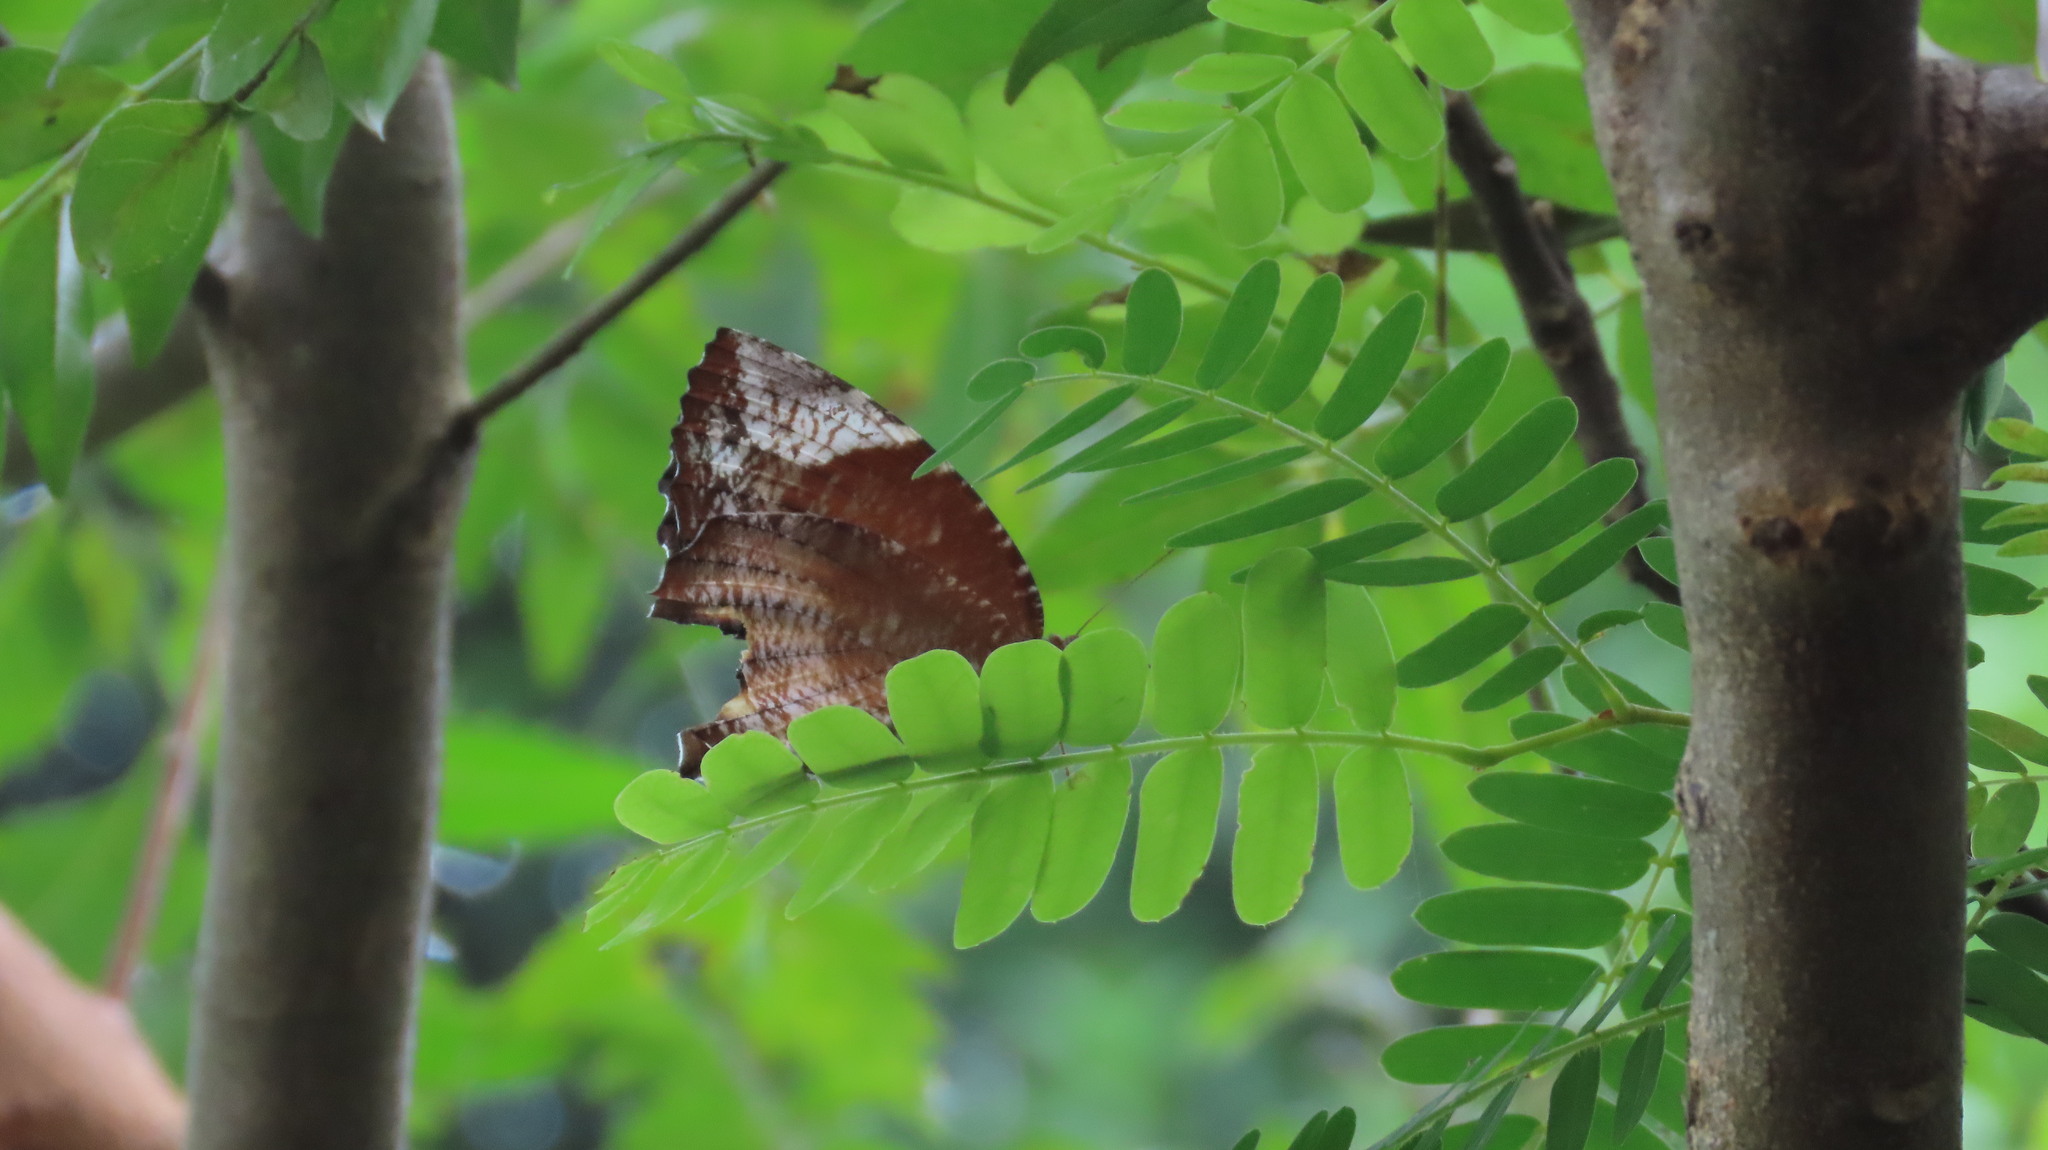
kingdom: Animalia
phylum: Arthropoda
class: Insecta
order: Lepidoptera
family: Nymphalidae
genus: Elymnias
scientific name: Elymnias caudata
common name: Tailed palmfly
